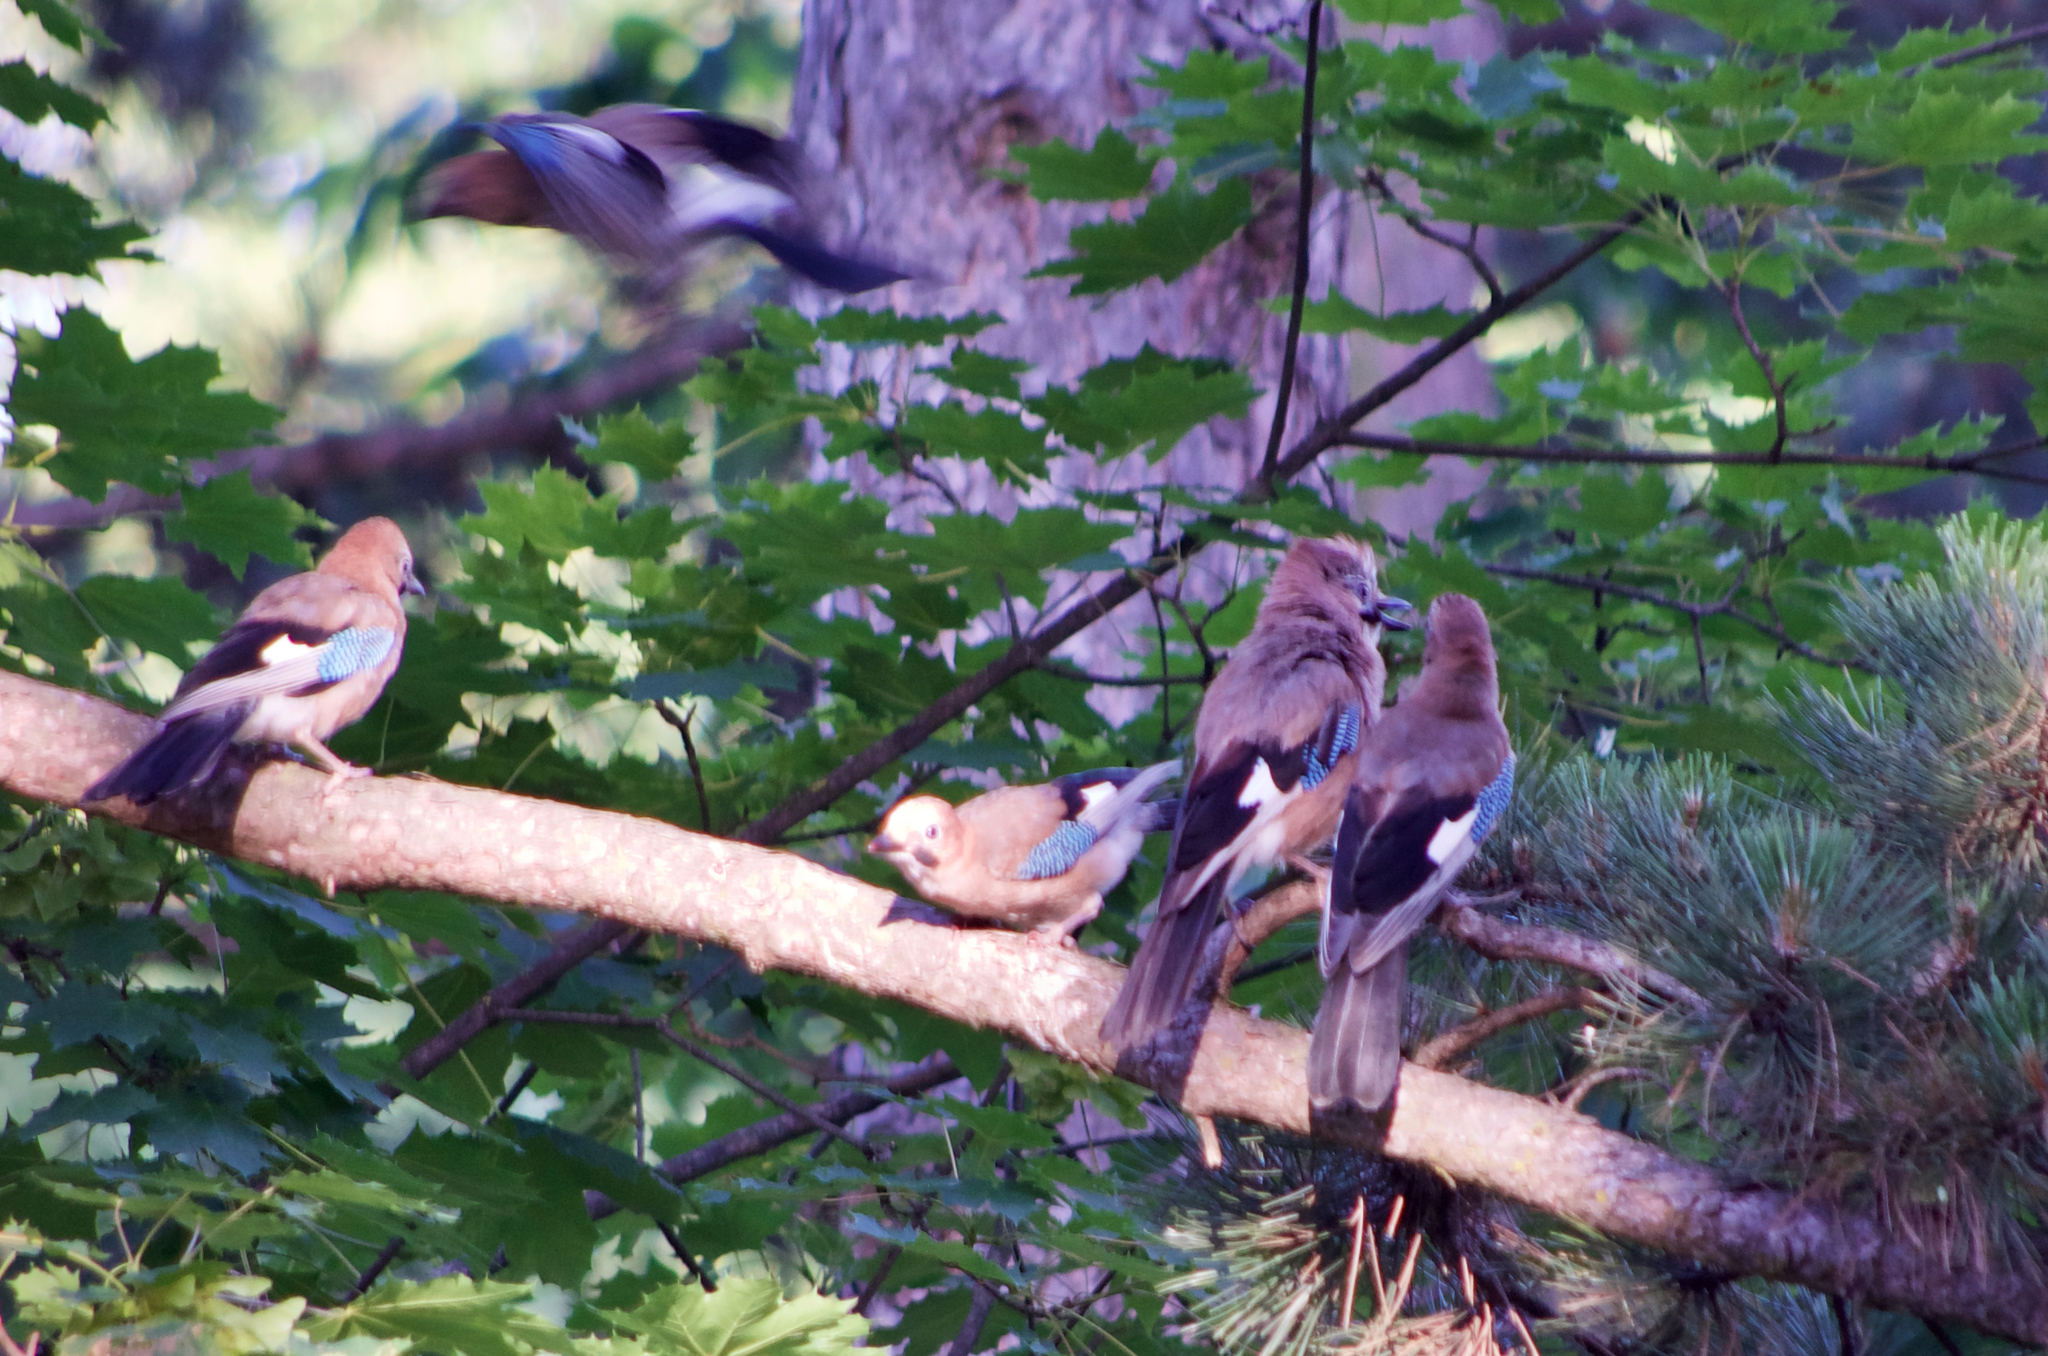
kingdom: Animalia
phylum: Chordata
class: Aves
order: Passeriformes
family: Corvidae
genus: Garrulus
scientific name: Garrulus glandarius
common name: Eurasian jay
